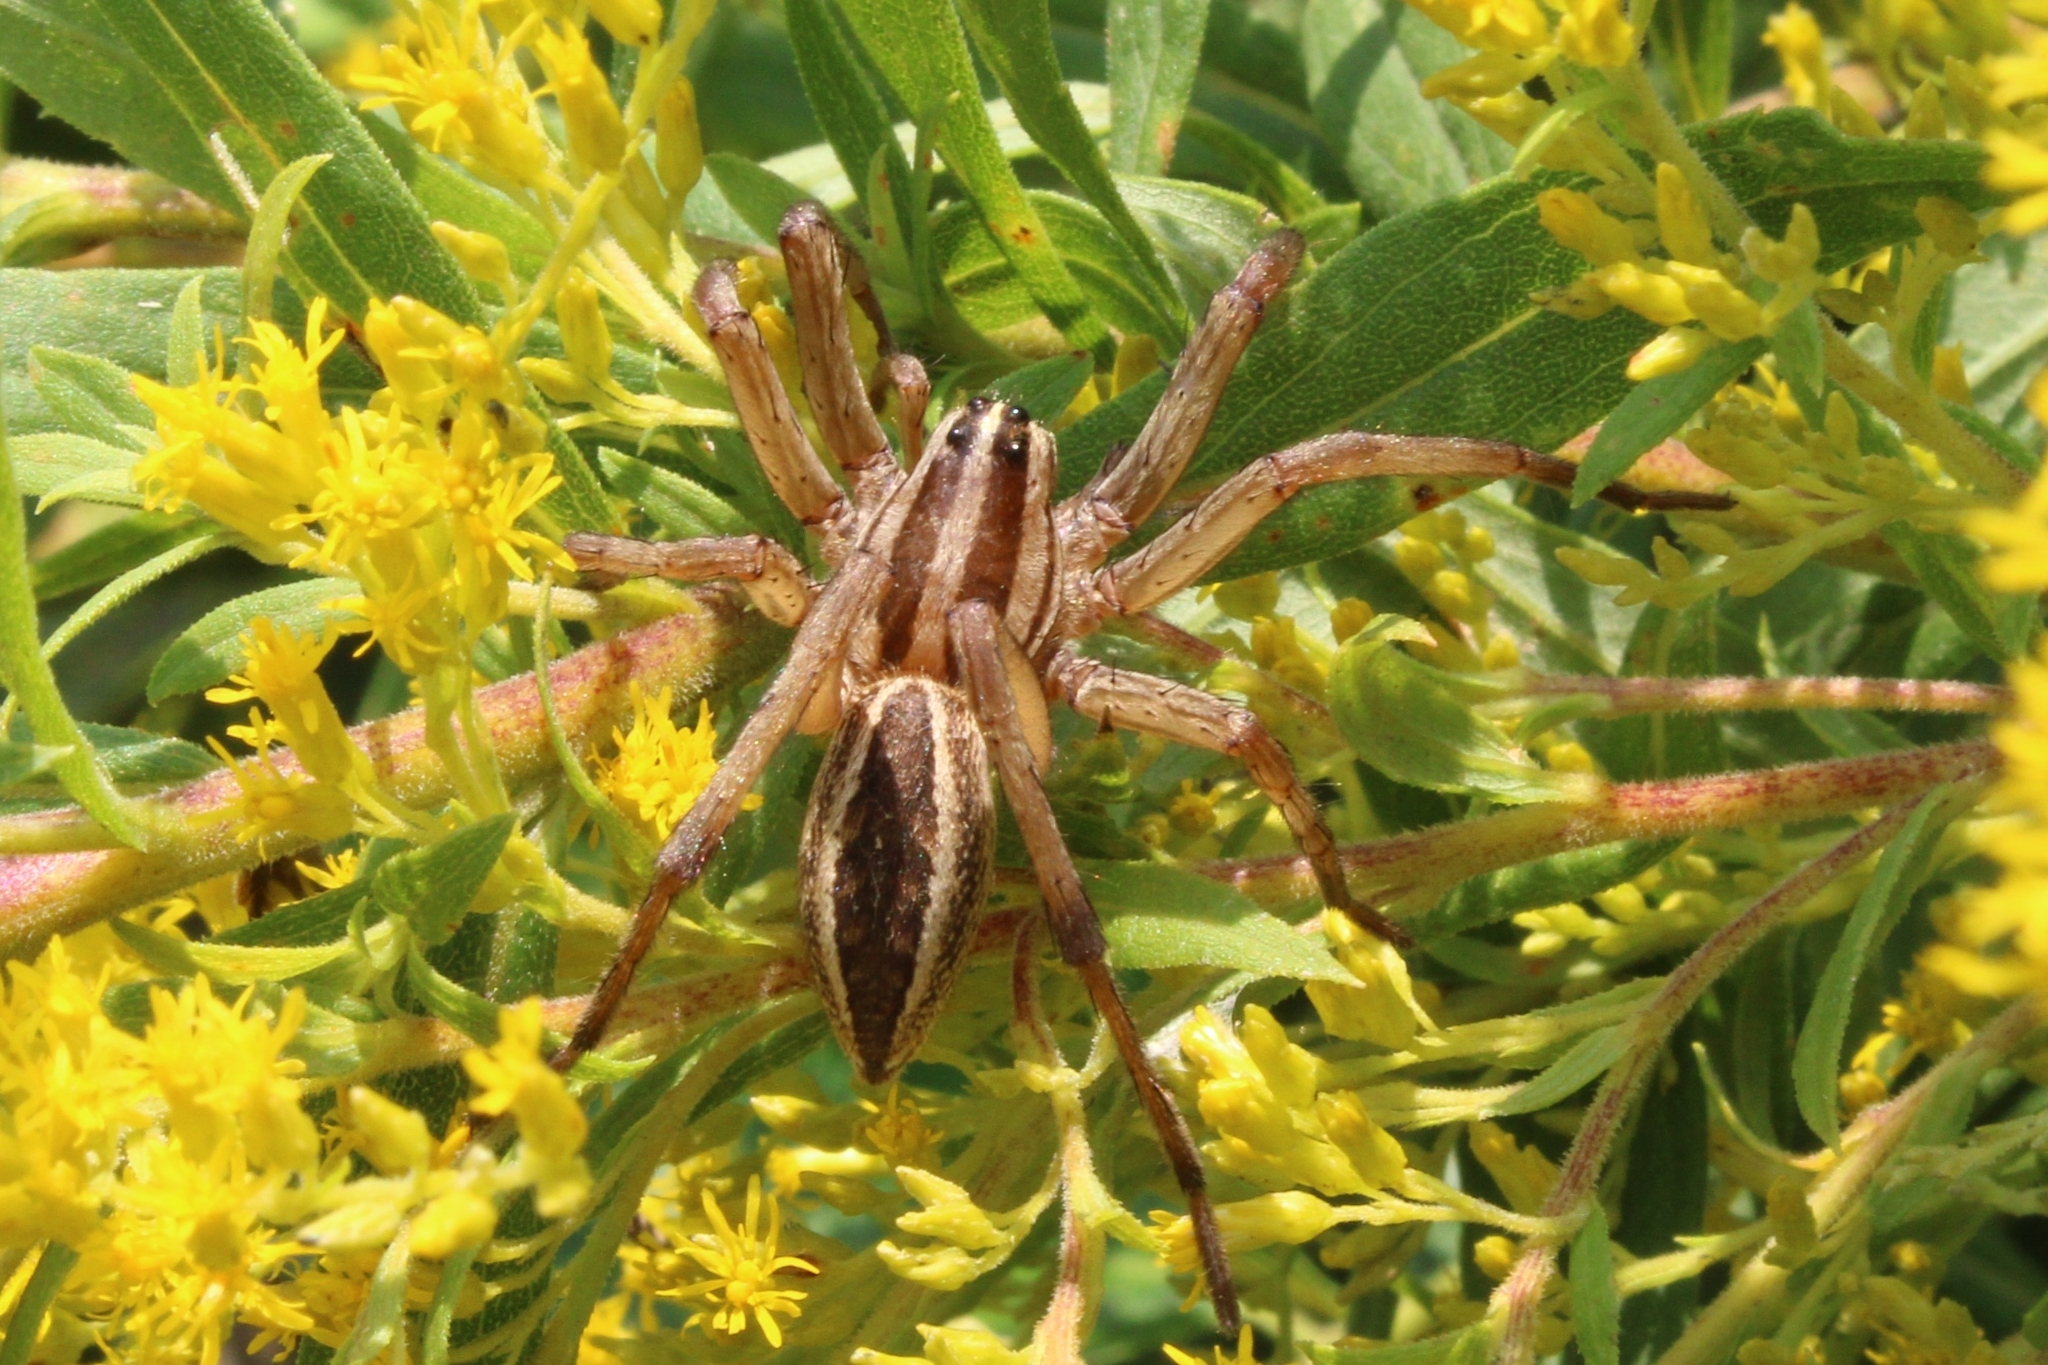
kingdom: Animalia
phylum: Arthropoda
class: Arachnida
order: Araneae
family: Lycosidae
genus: Rabidosa
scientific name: Rabidosa rabida
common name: Rabid wolf spider
